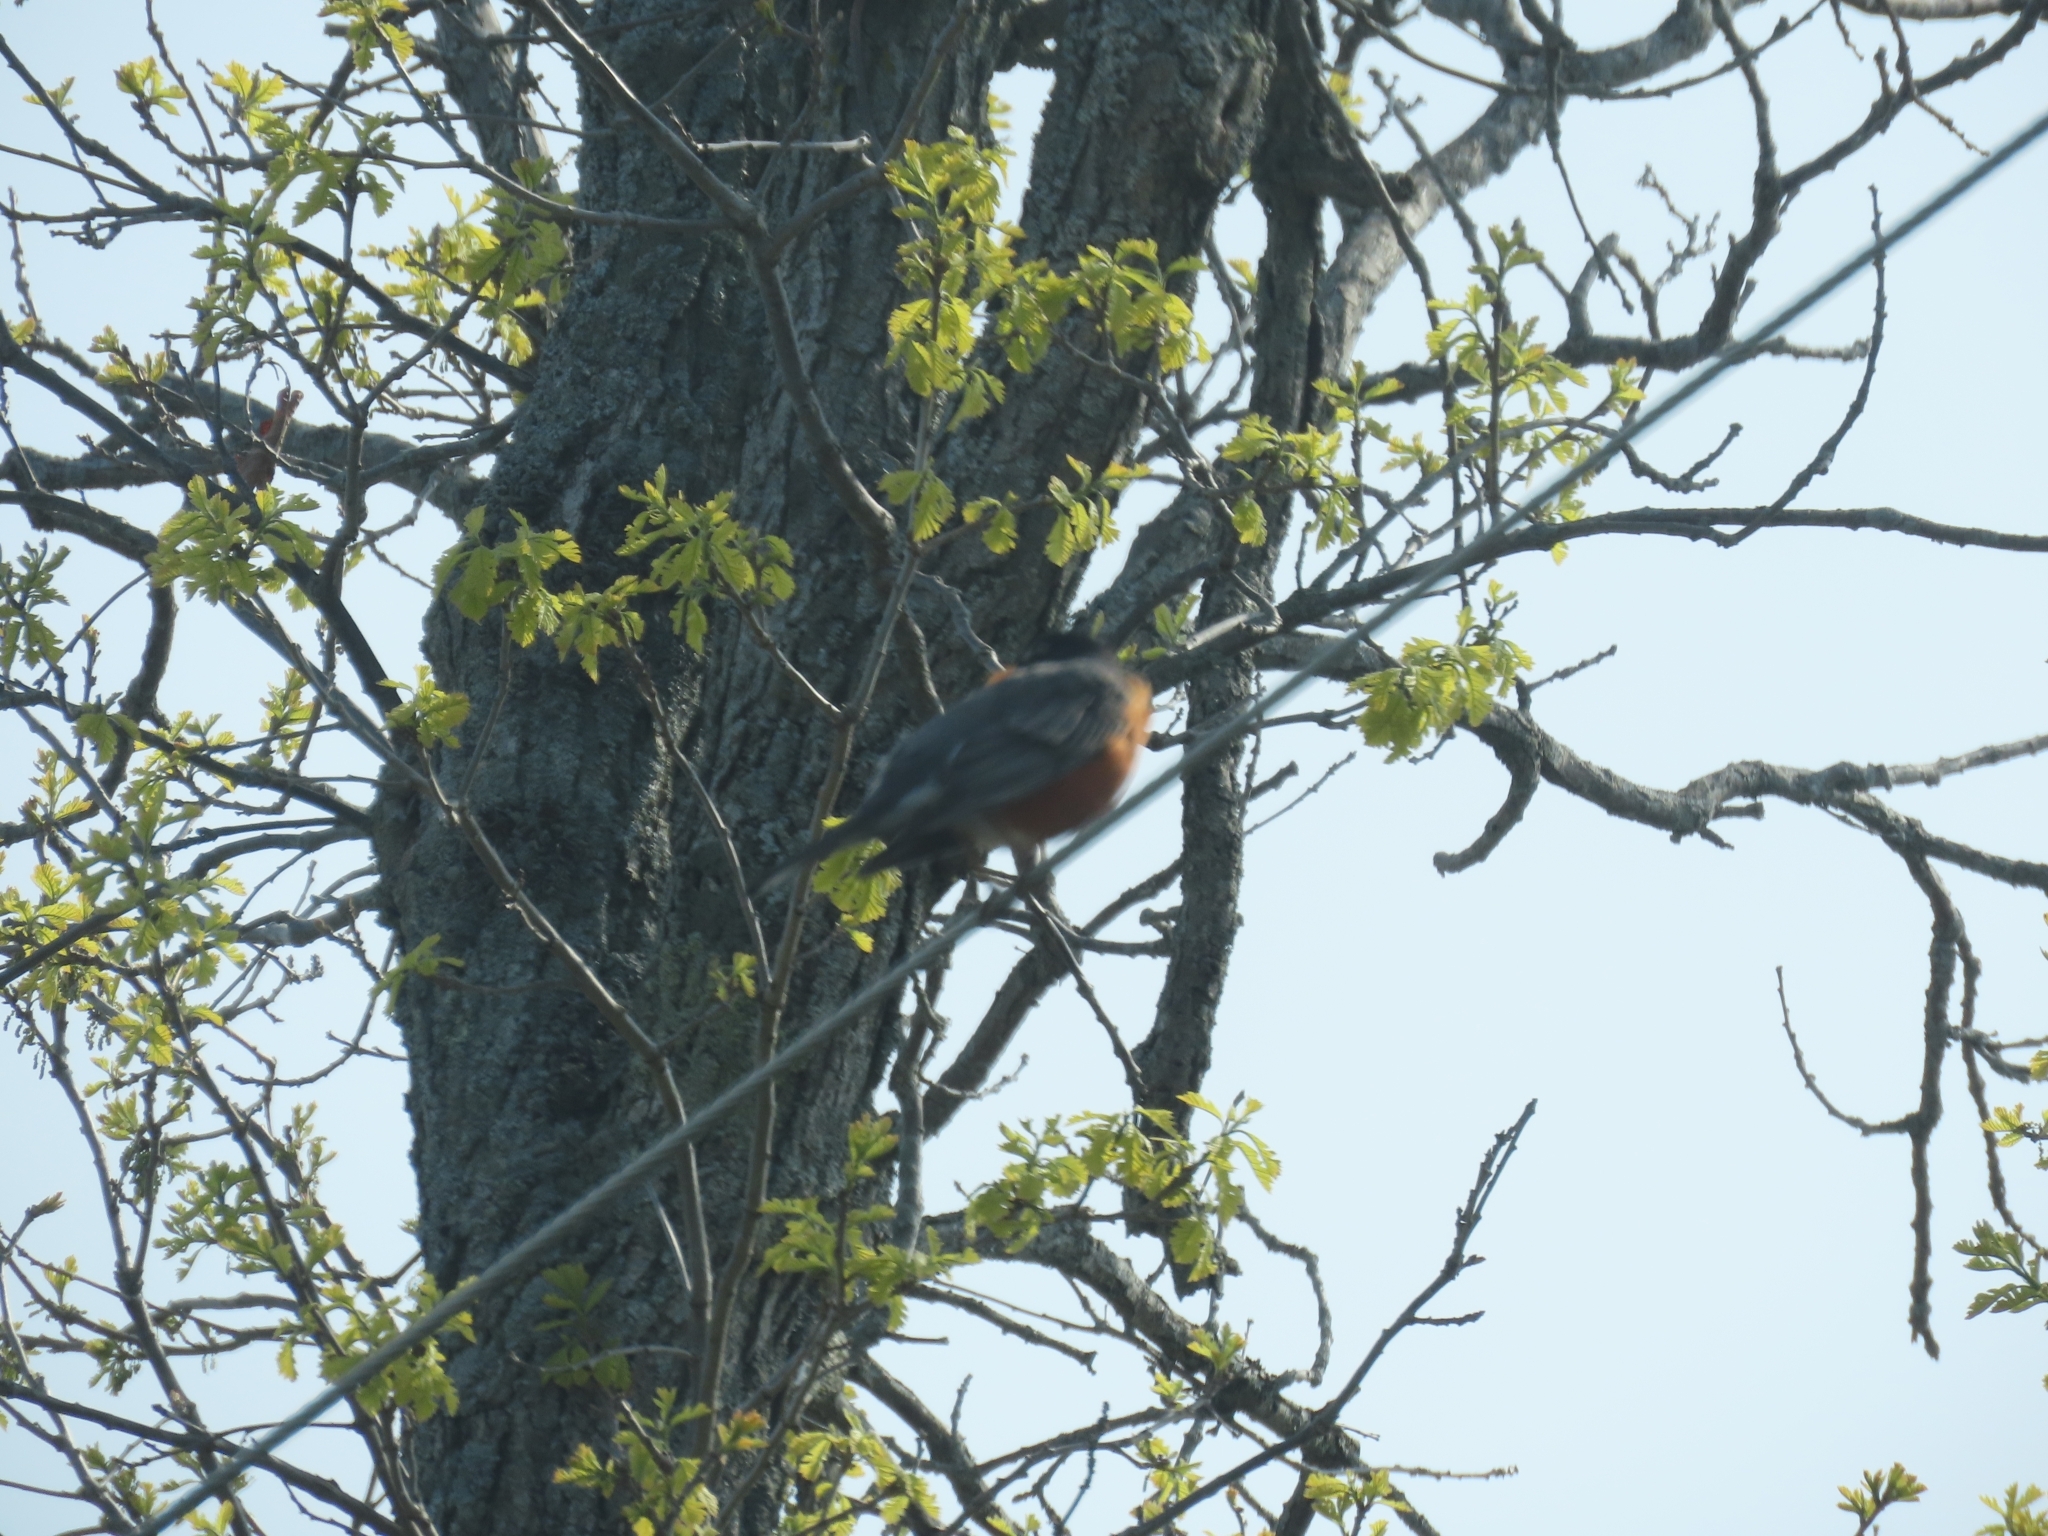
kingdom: Animalia
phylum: Chordata
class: Aves
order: Passeriformes
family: Turdidae
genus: Turdus
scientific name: Turdus migratorius
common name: American robin
